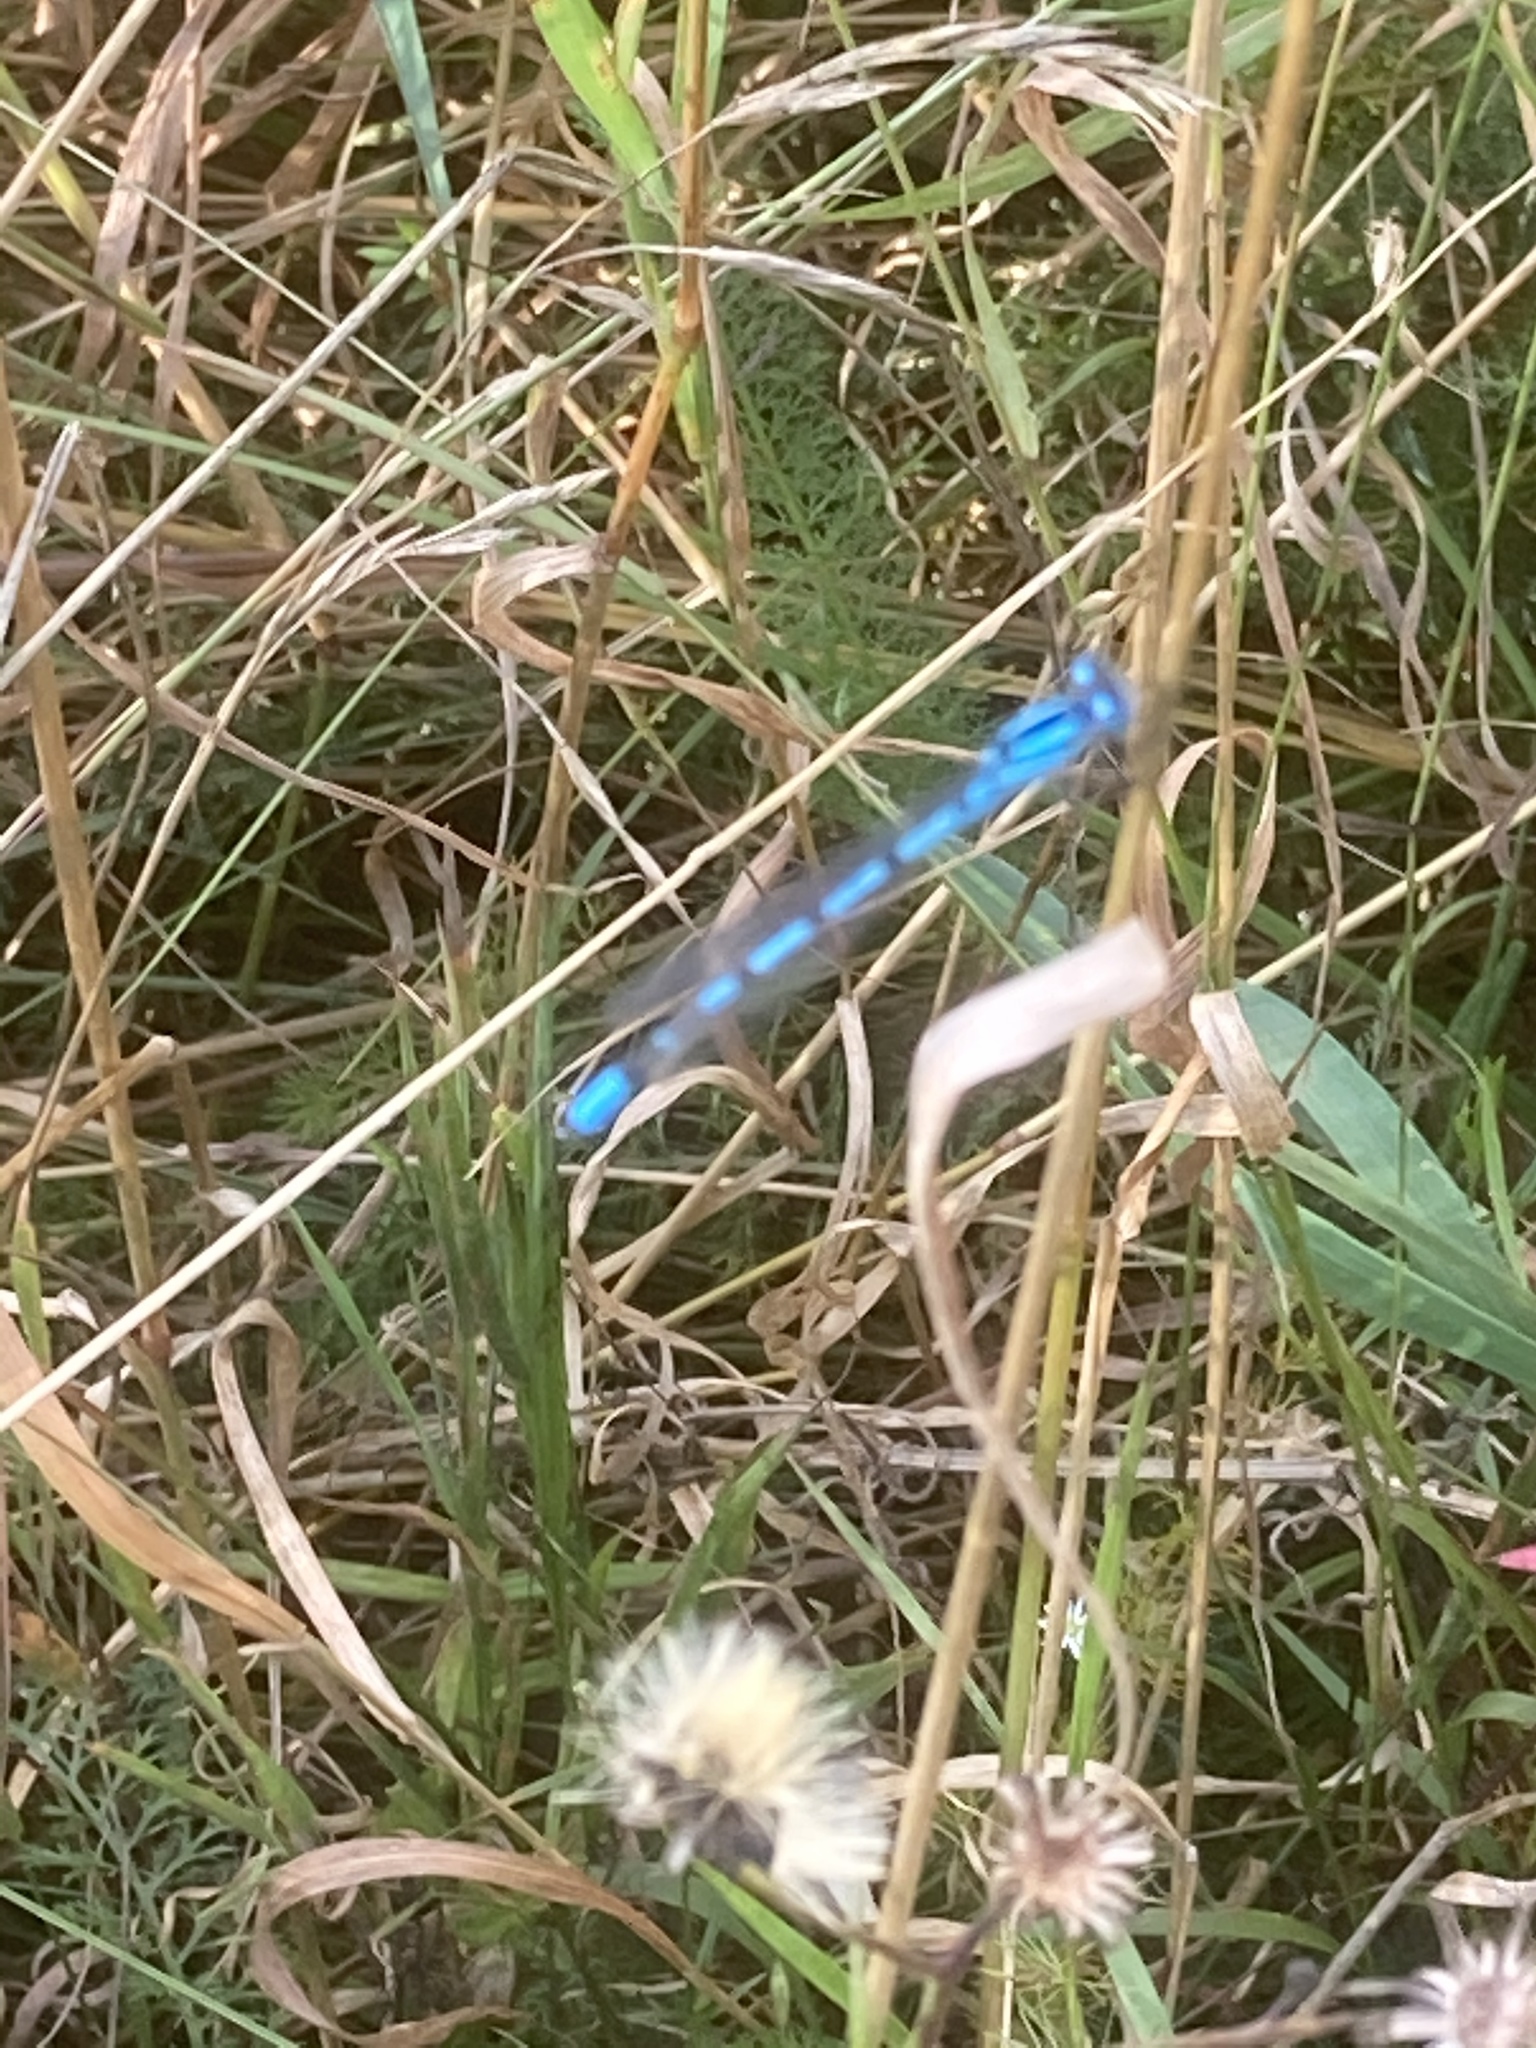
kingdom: Animalia
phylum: Arthropoda
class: Insecta
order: Odonata
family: Coenagrionidae
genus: Enallagma
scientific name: Enallagma cyathigerum
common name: Common blue damselfly
